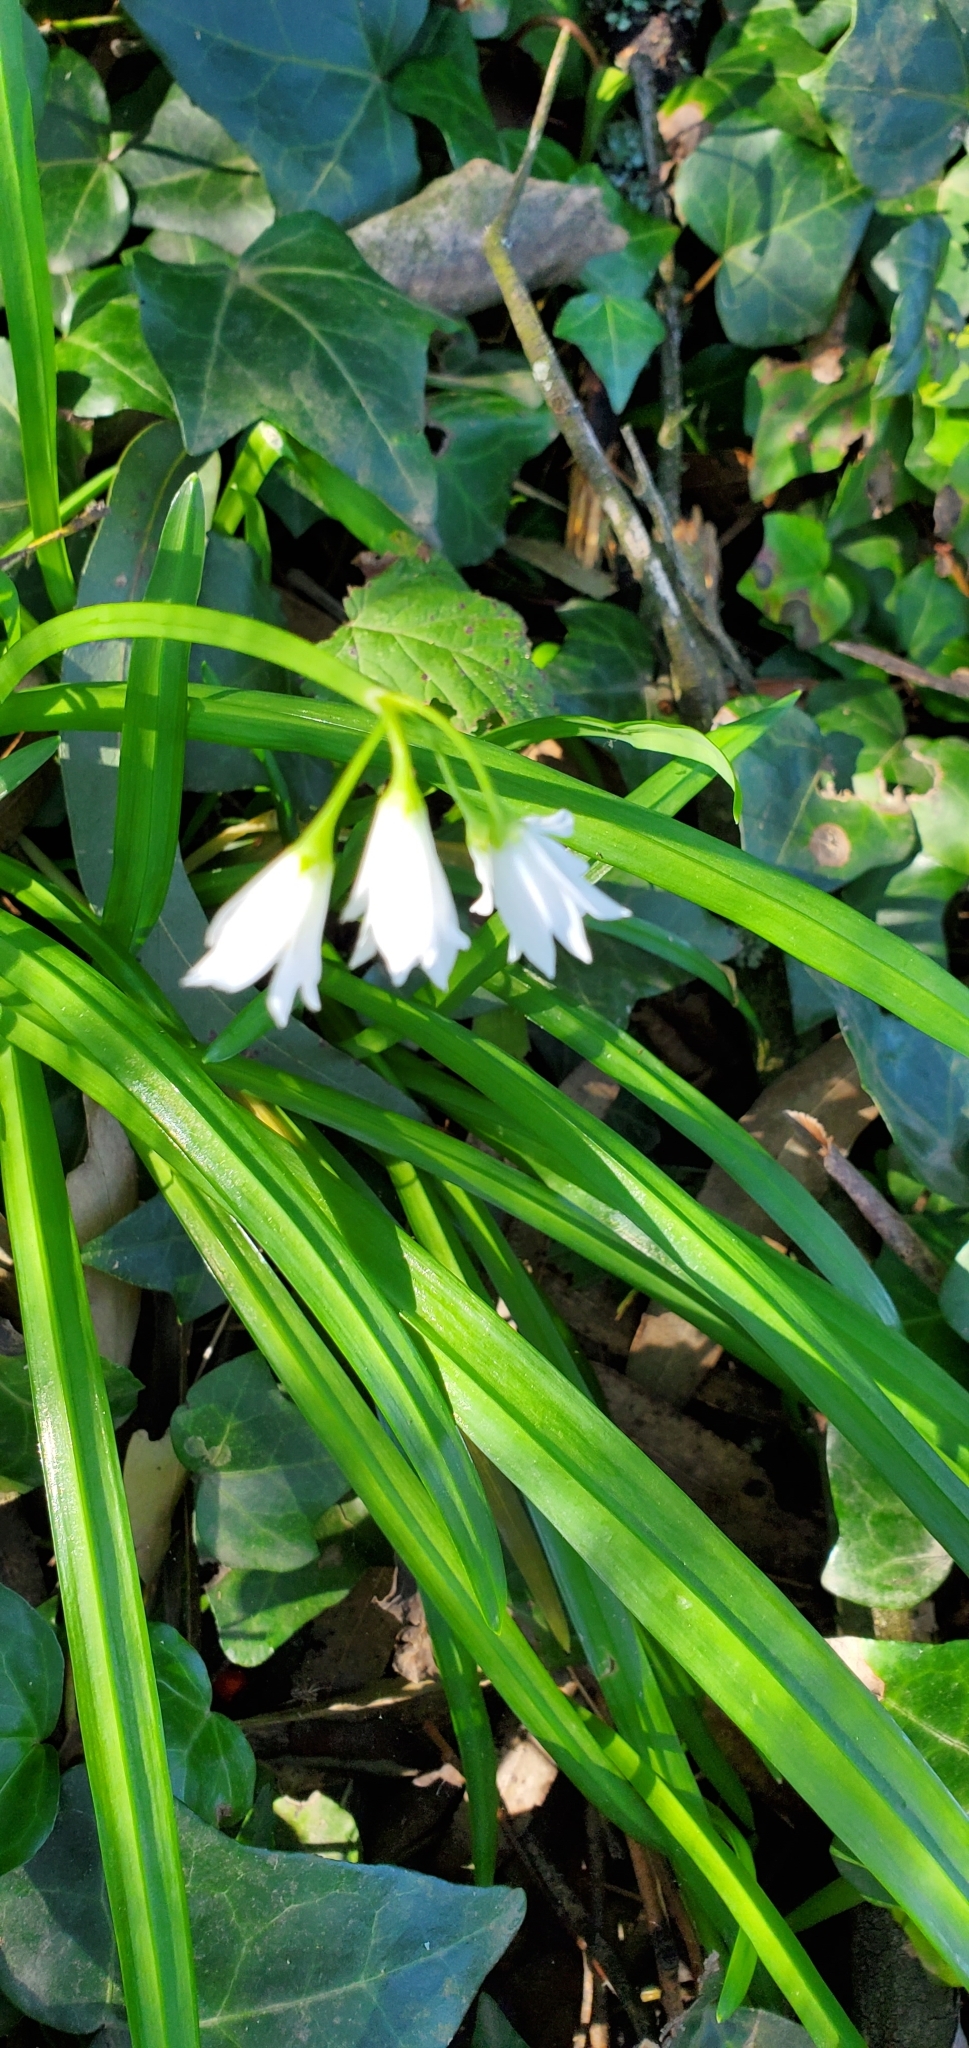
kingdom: Plantae
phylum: Tracheophyta
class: Liliopsida
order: Asparagales
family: Amaryllidaceae
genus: Allium
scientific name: Allium triquetrum
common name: Three-cornered garlic
